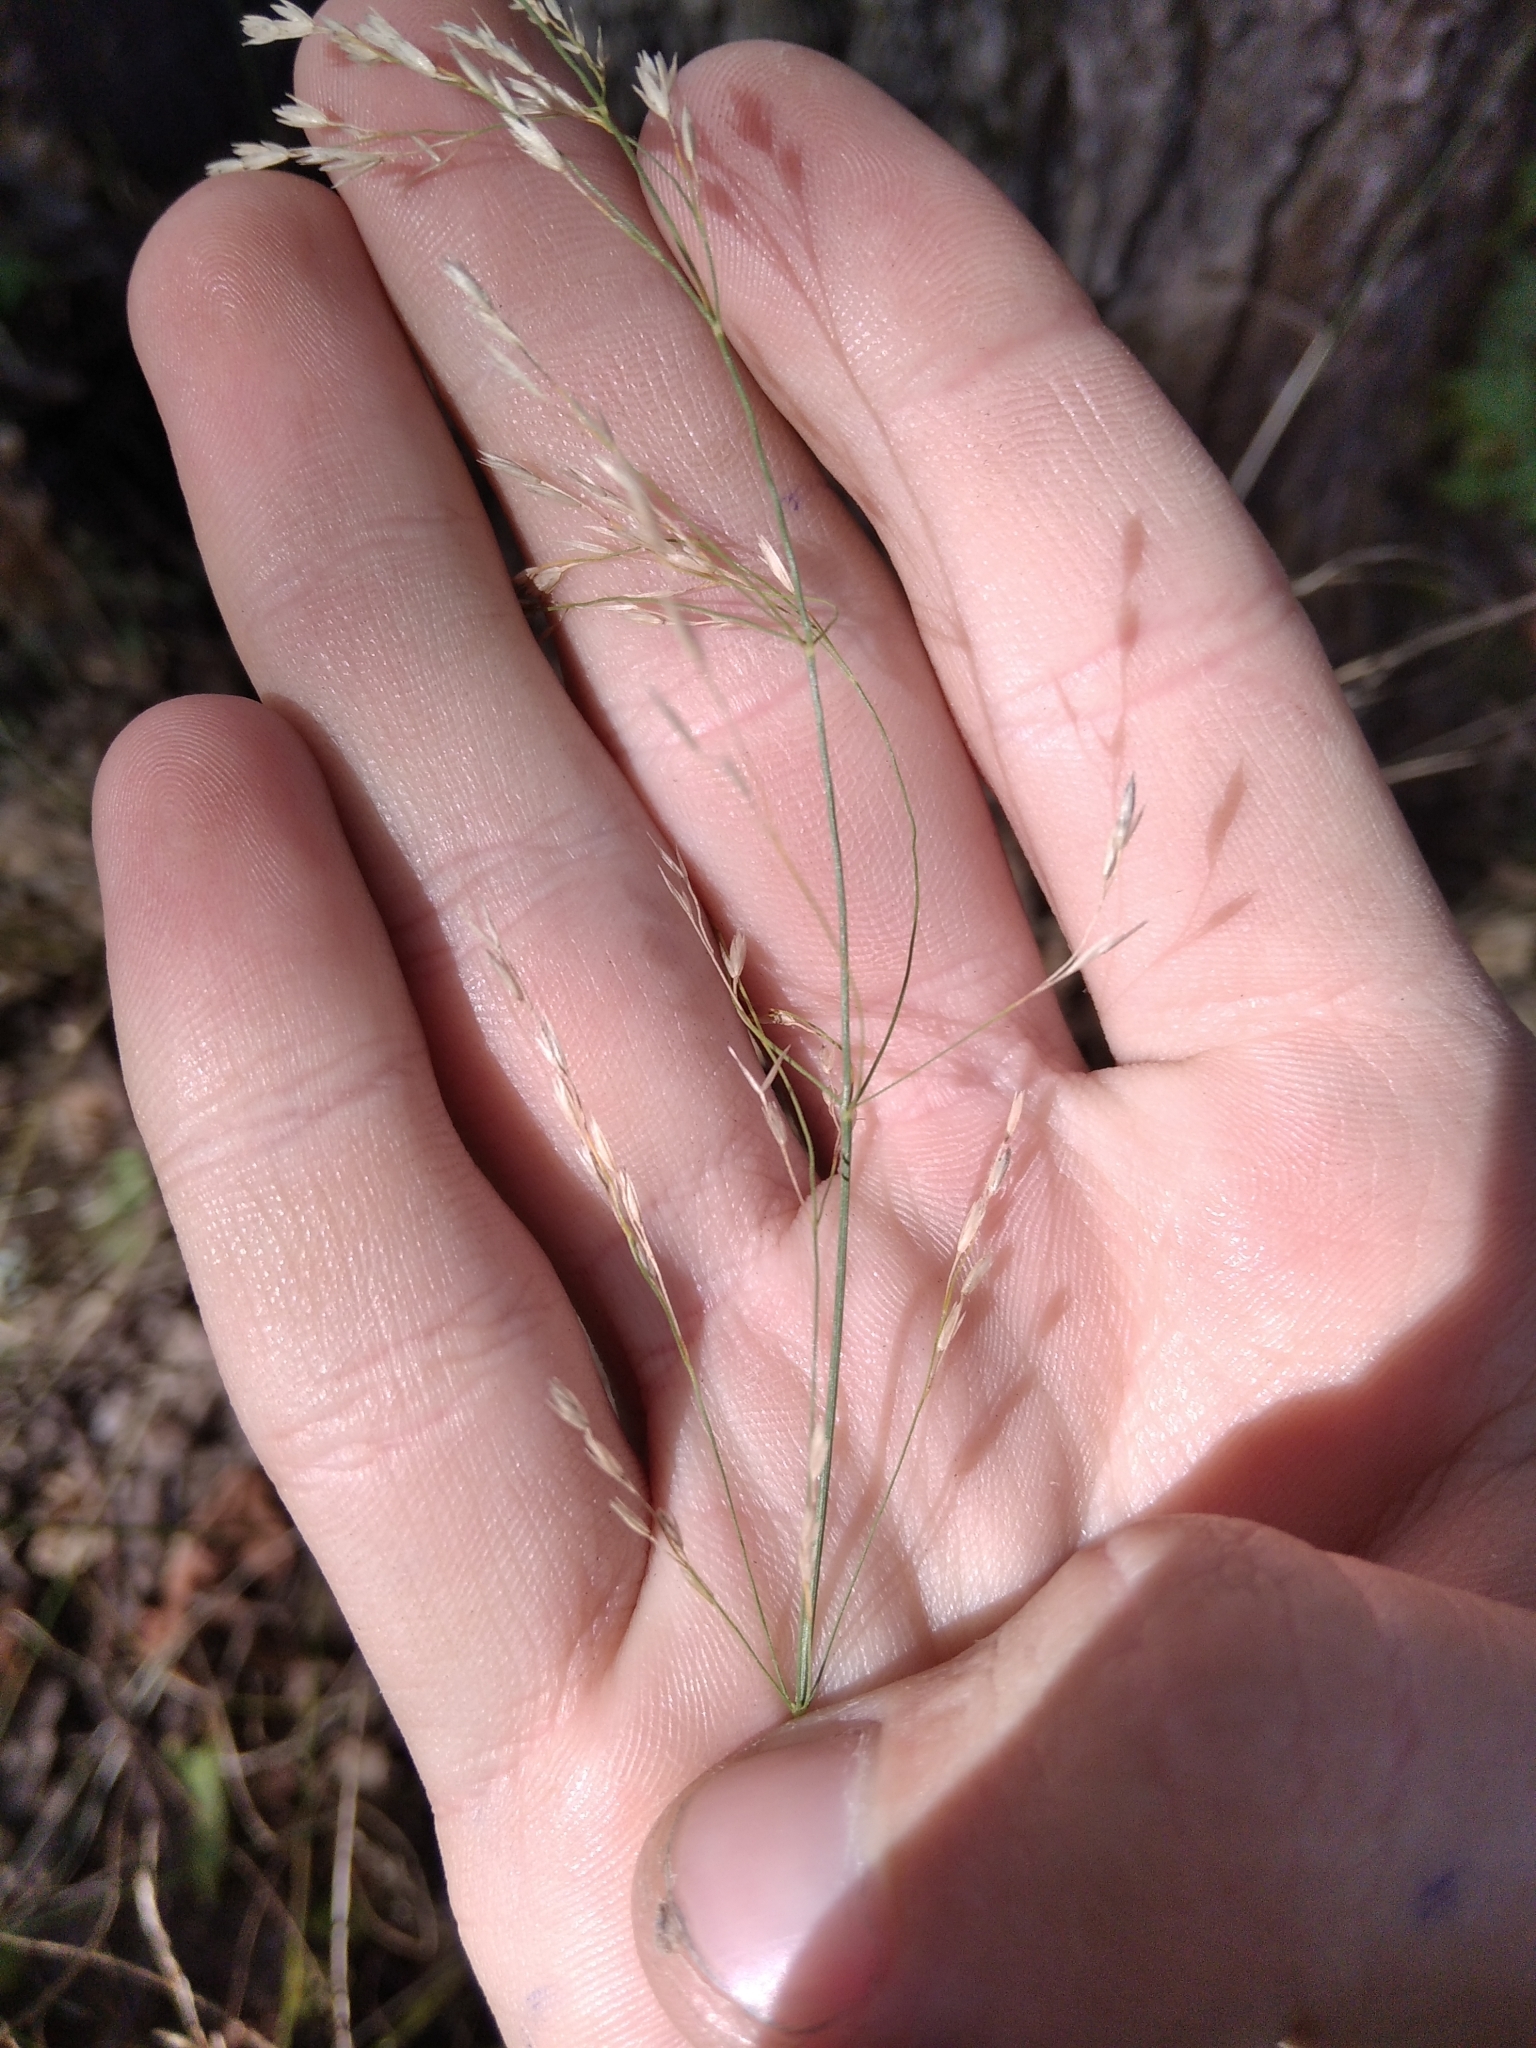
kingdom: Plantae
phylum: Tracheophyta
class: Liliopsida
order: Poales
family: Poaceae
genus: Poa
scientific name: Poa palustris
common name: Swamp meadow-grass
